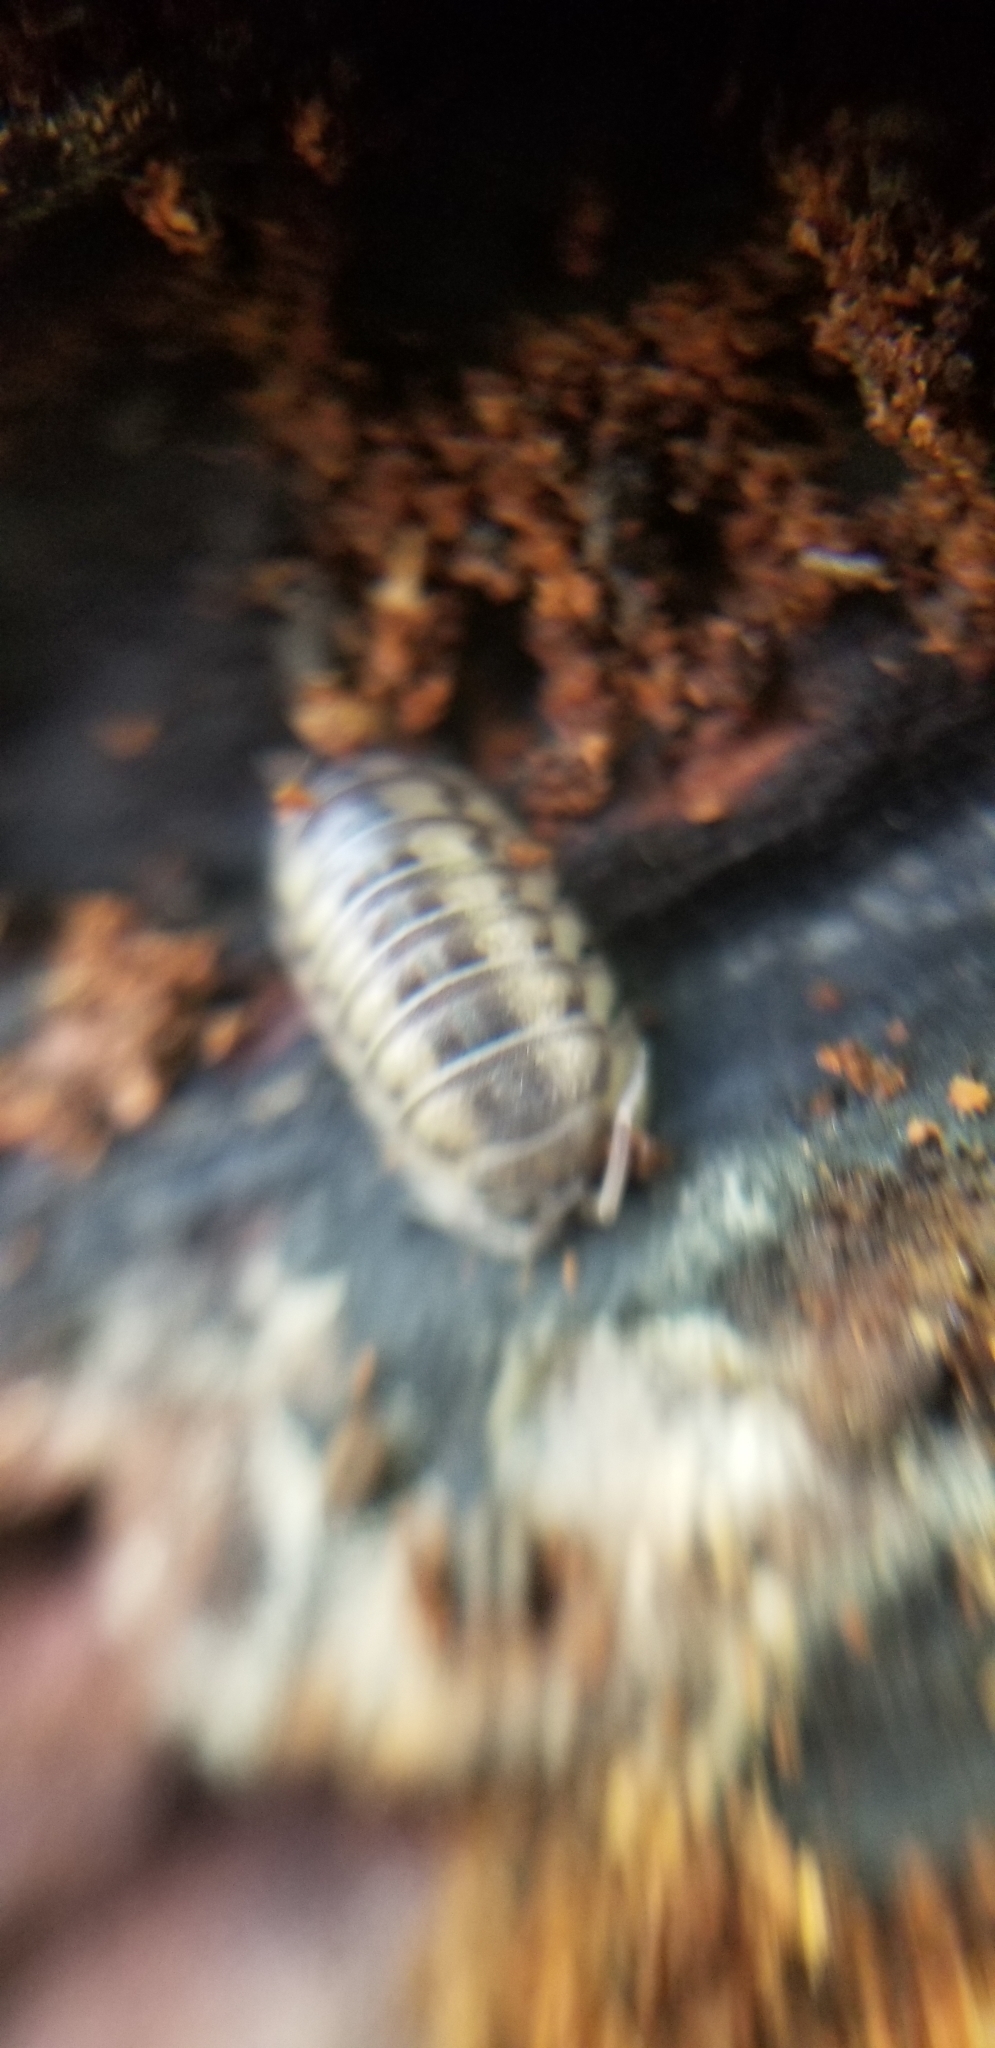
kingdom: Animalia
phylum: Arthropoda
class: Malacostraca
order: Isopoda
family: Armadillidiidae
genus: Armadillidium
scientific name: Armadillidium nasatum
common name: Isopod
